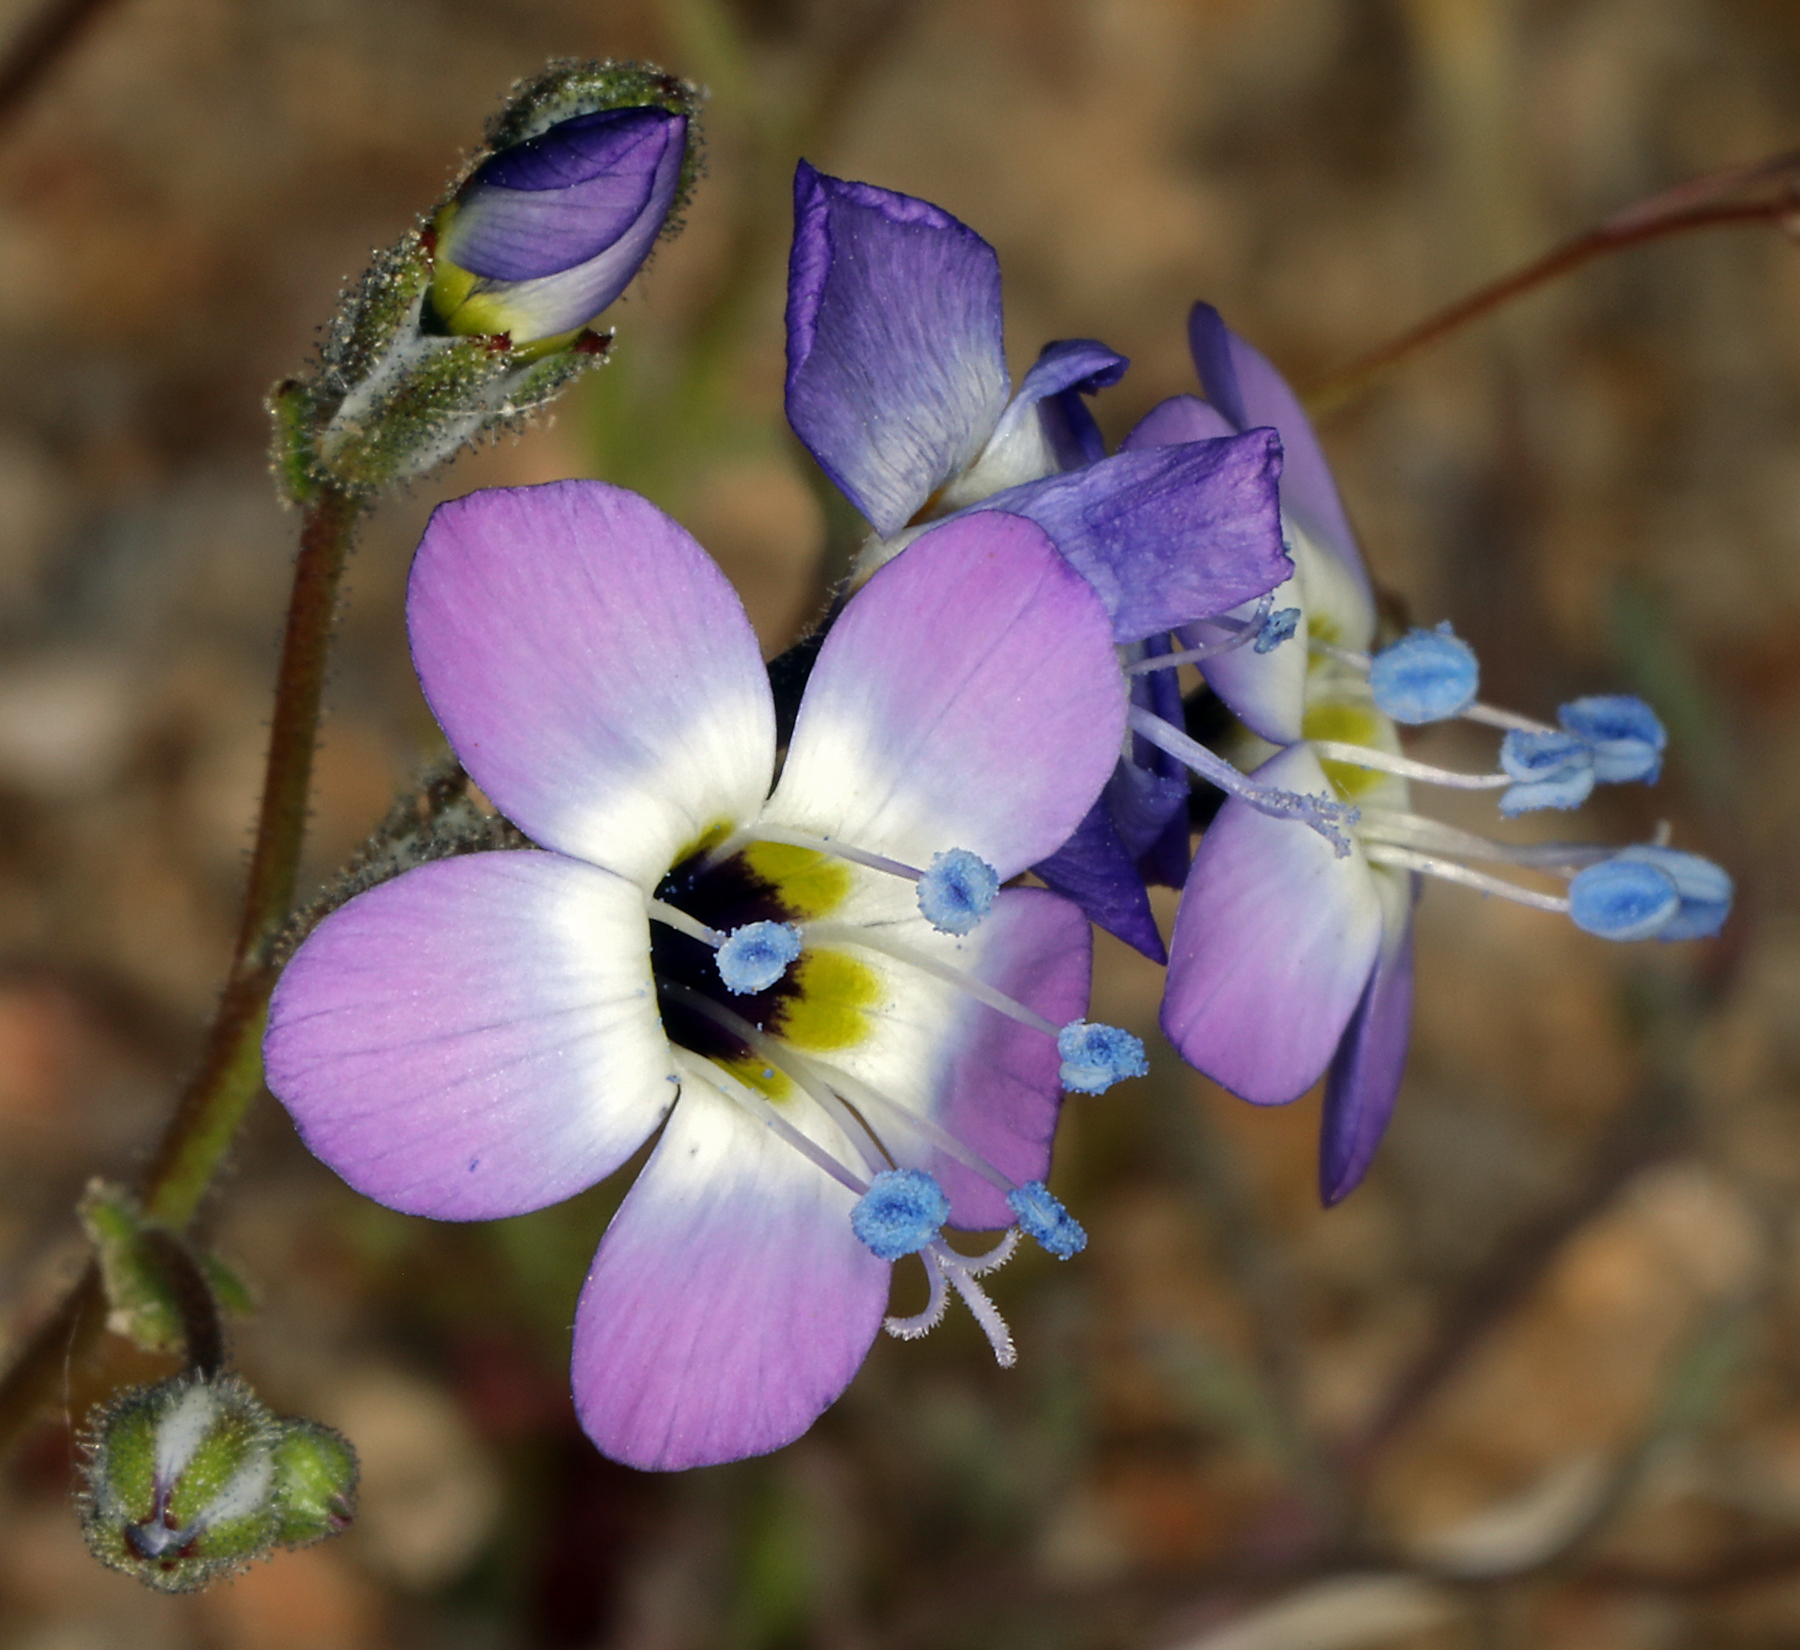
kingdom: Plantae
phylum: Tracheophyta
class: Magnoliopsida
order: Ericales
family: Polemoniaceae
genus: Gilia
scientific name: Gilia brecciarum
